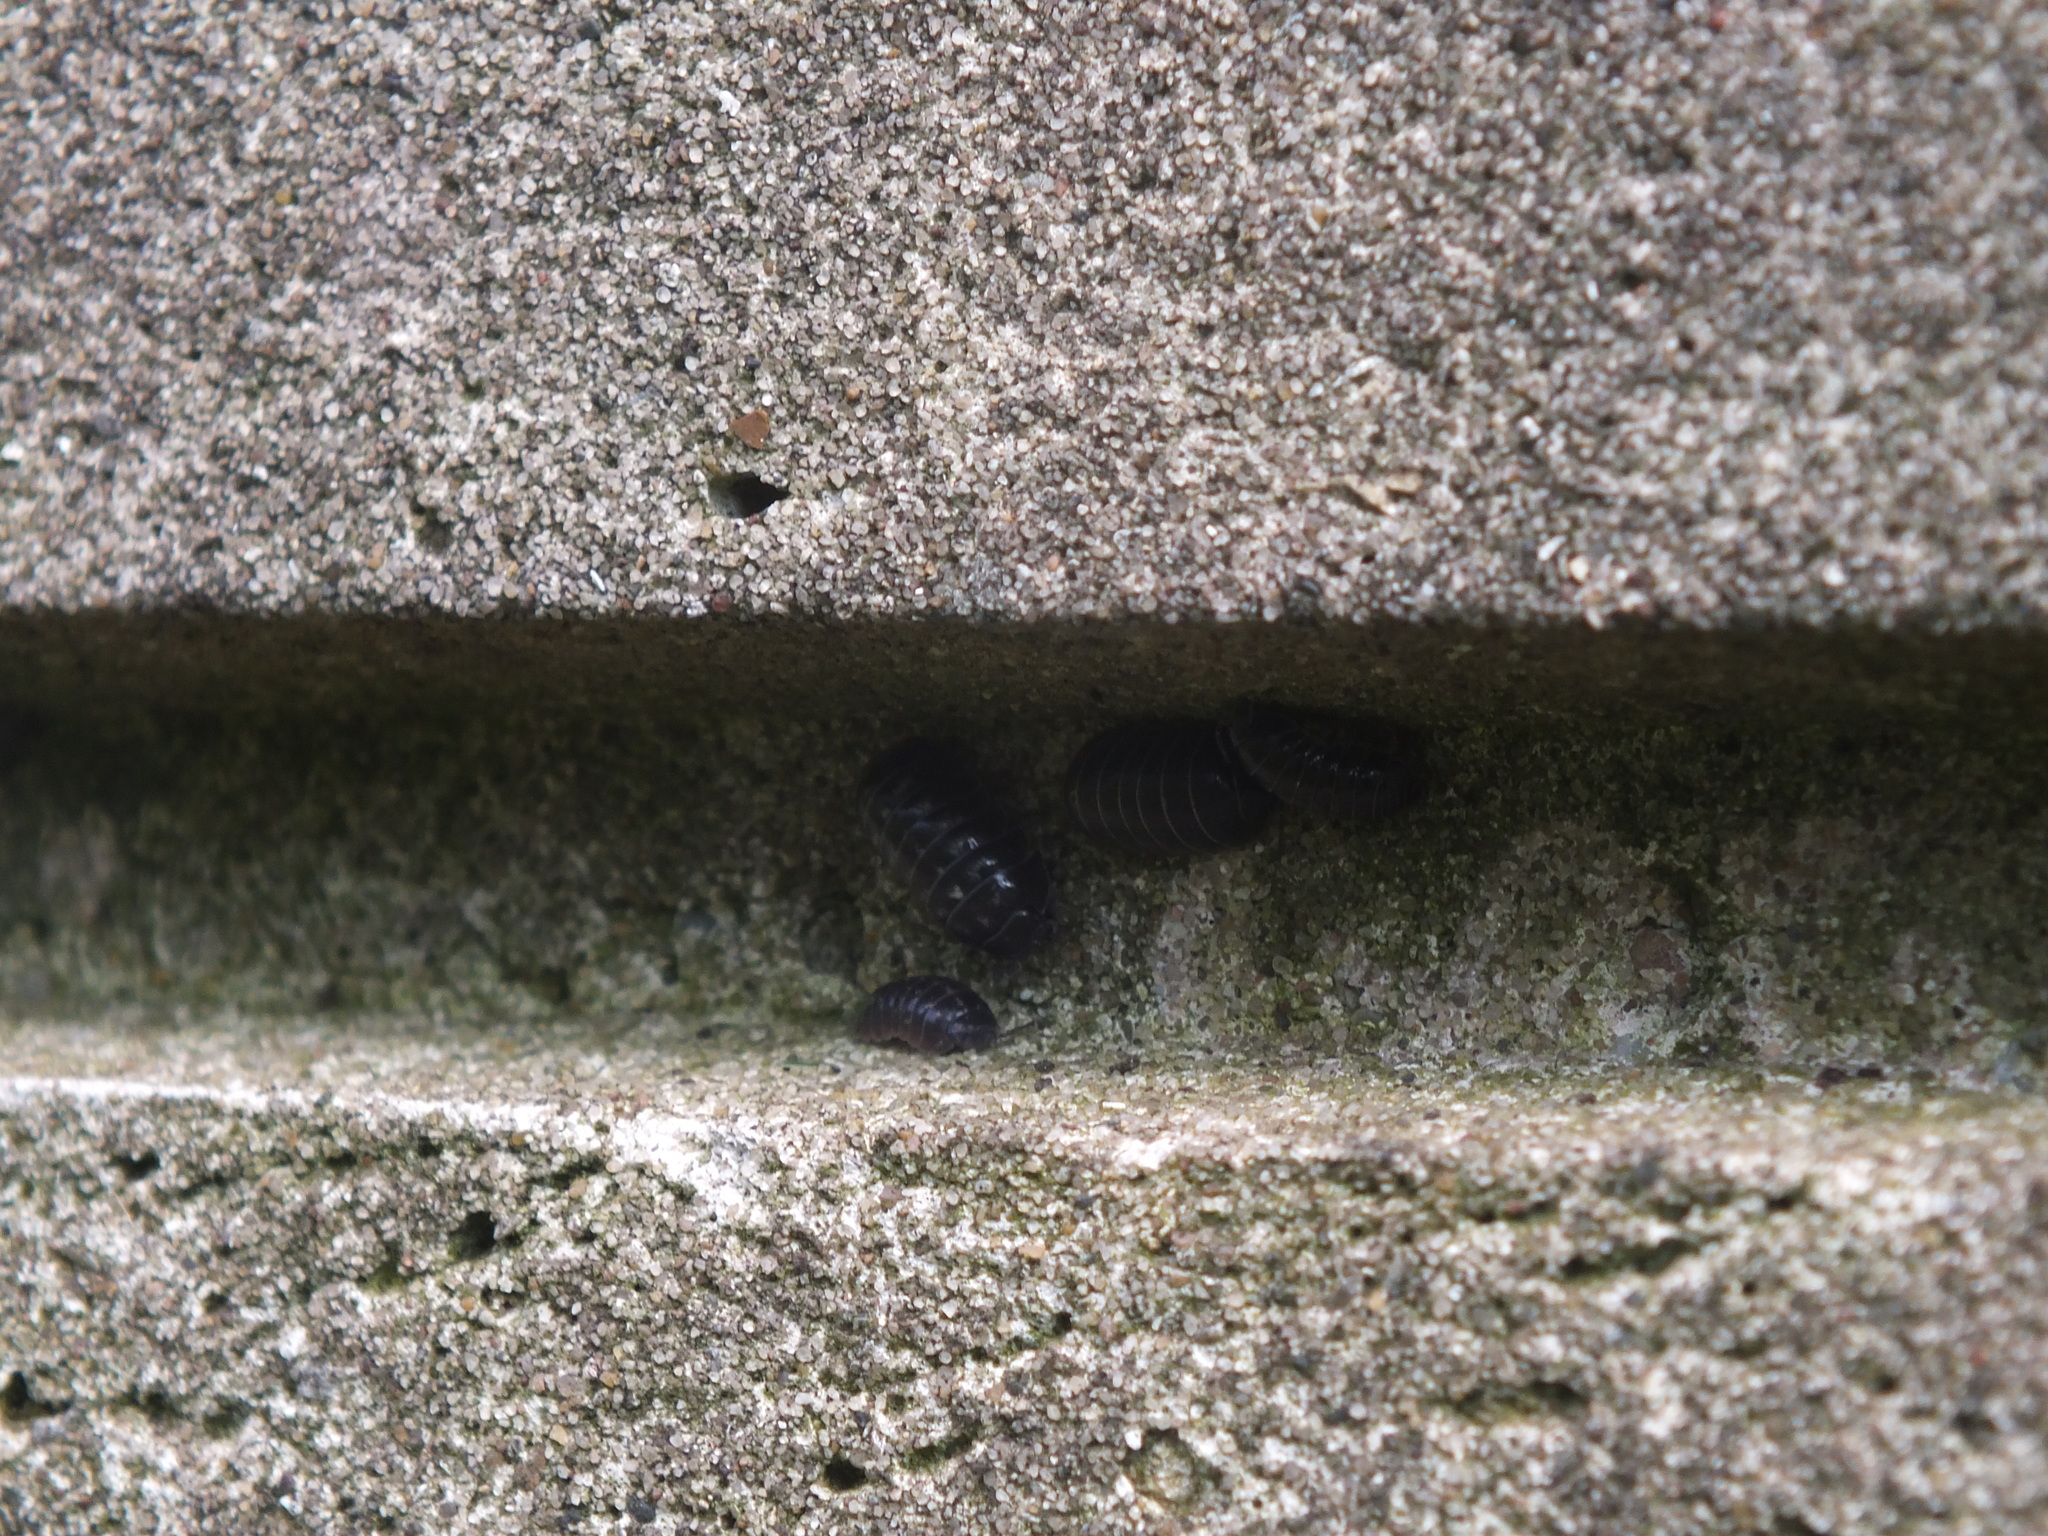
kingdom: Animalia
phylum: Arthropoda
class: Malacostraca
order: Isopoda
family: Armadillidiidae
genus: Armadillidium
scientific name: Armadillidium vulgare
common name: Common pill woodlouse
